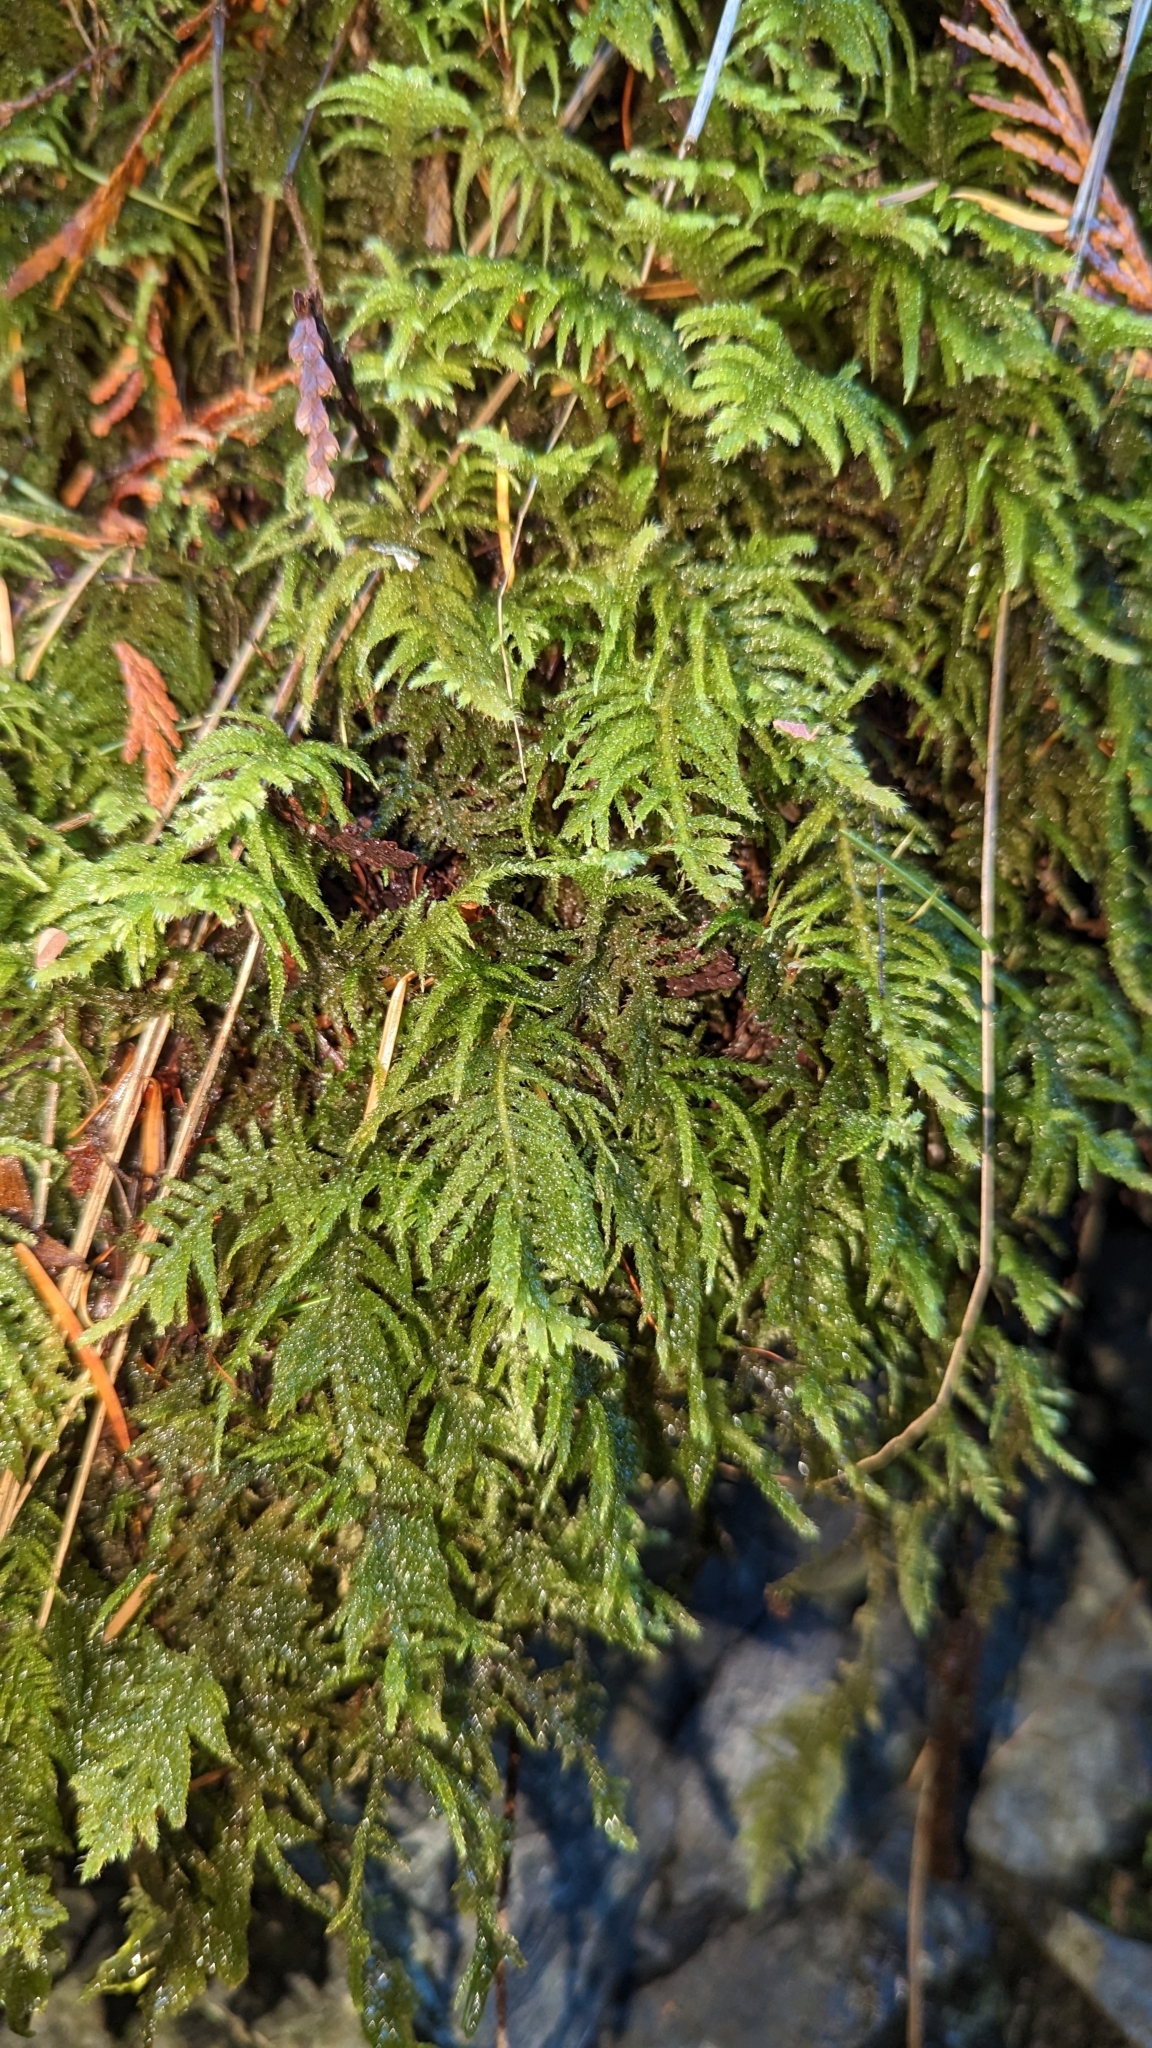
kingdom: Plantae
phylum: Bryophyta
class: Bryopsida
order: Hypnales
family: Brachytheciaceae
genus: Kindbergia
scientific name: Kindbergia oregana
